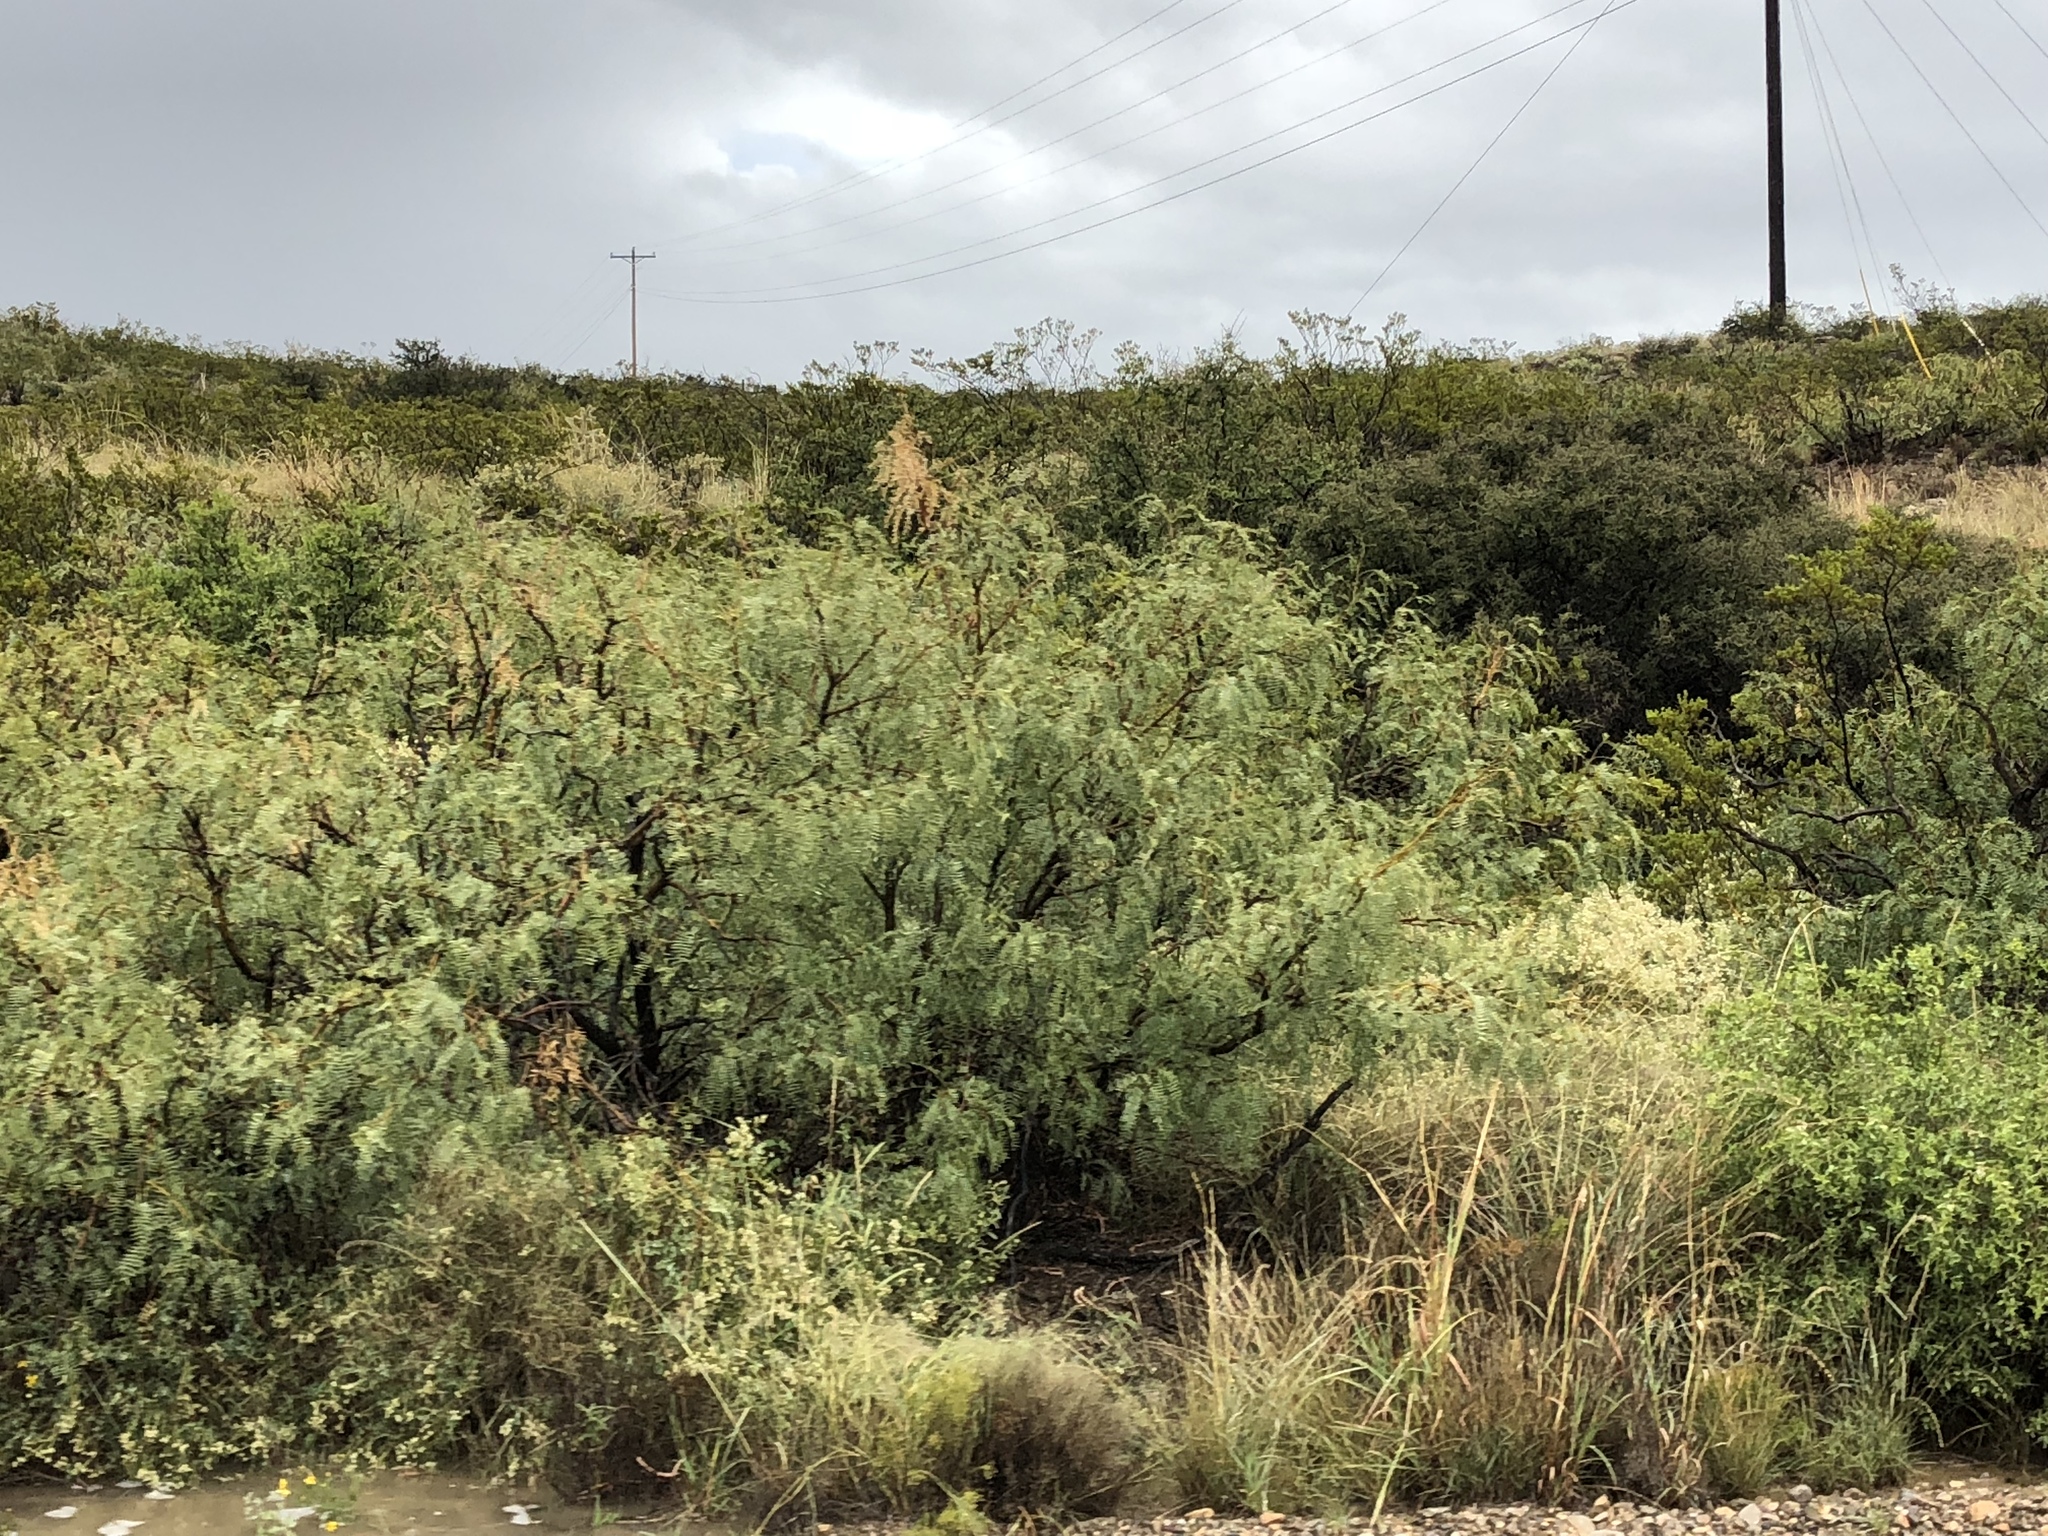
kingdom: Plantae
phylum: Tracheophyta
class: Magnoliopsida
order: Fabales
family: Fabaceae
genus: Prosopis
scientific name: Prosopis glandulosa
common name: Honey mesquite
